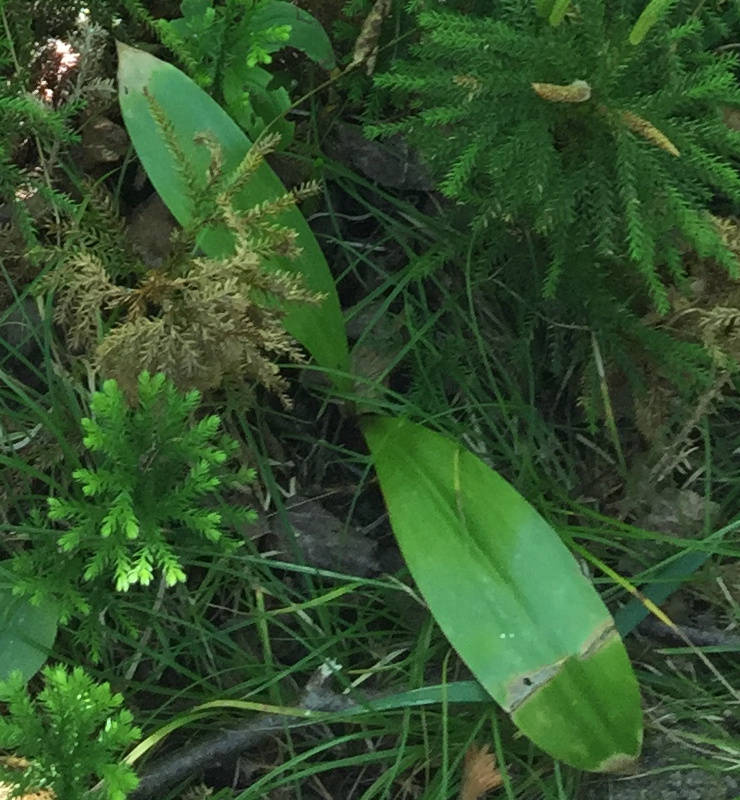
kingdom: Plantae
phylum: Tracheophyta
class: Liliopsida
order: Liliales
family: Liliaceae
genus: Clintonia
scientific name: Clintonia borealis
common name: Yellow clintonia
